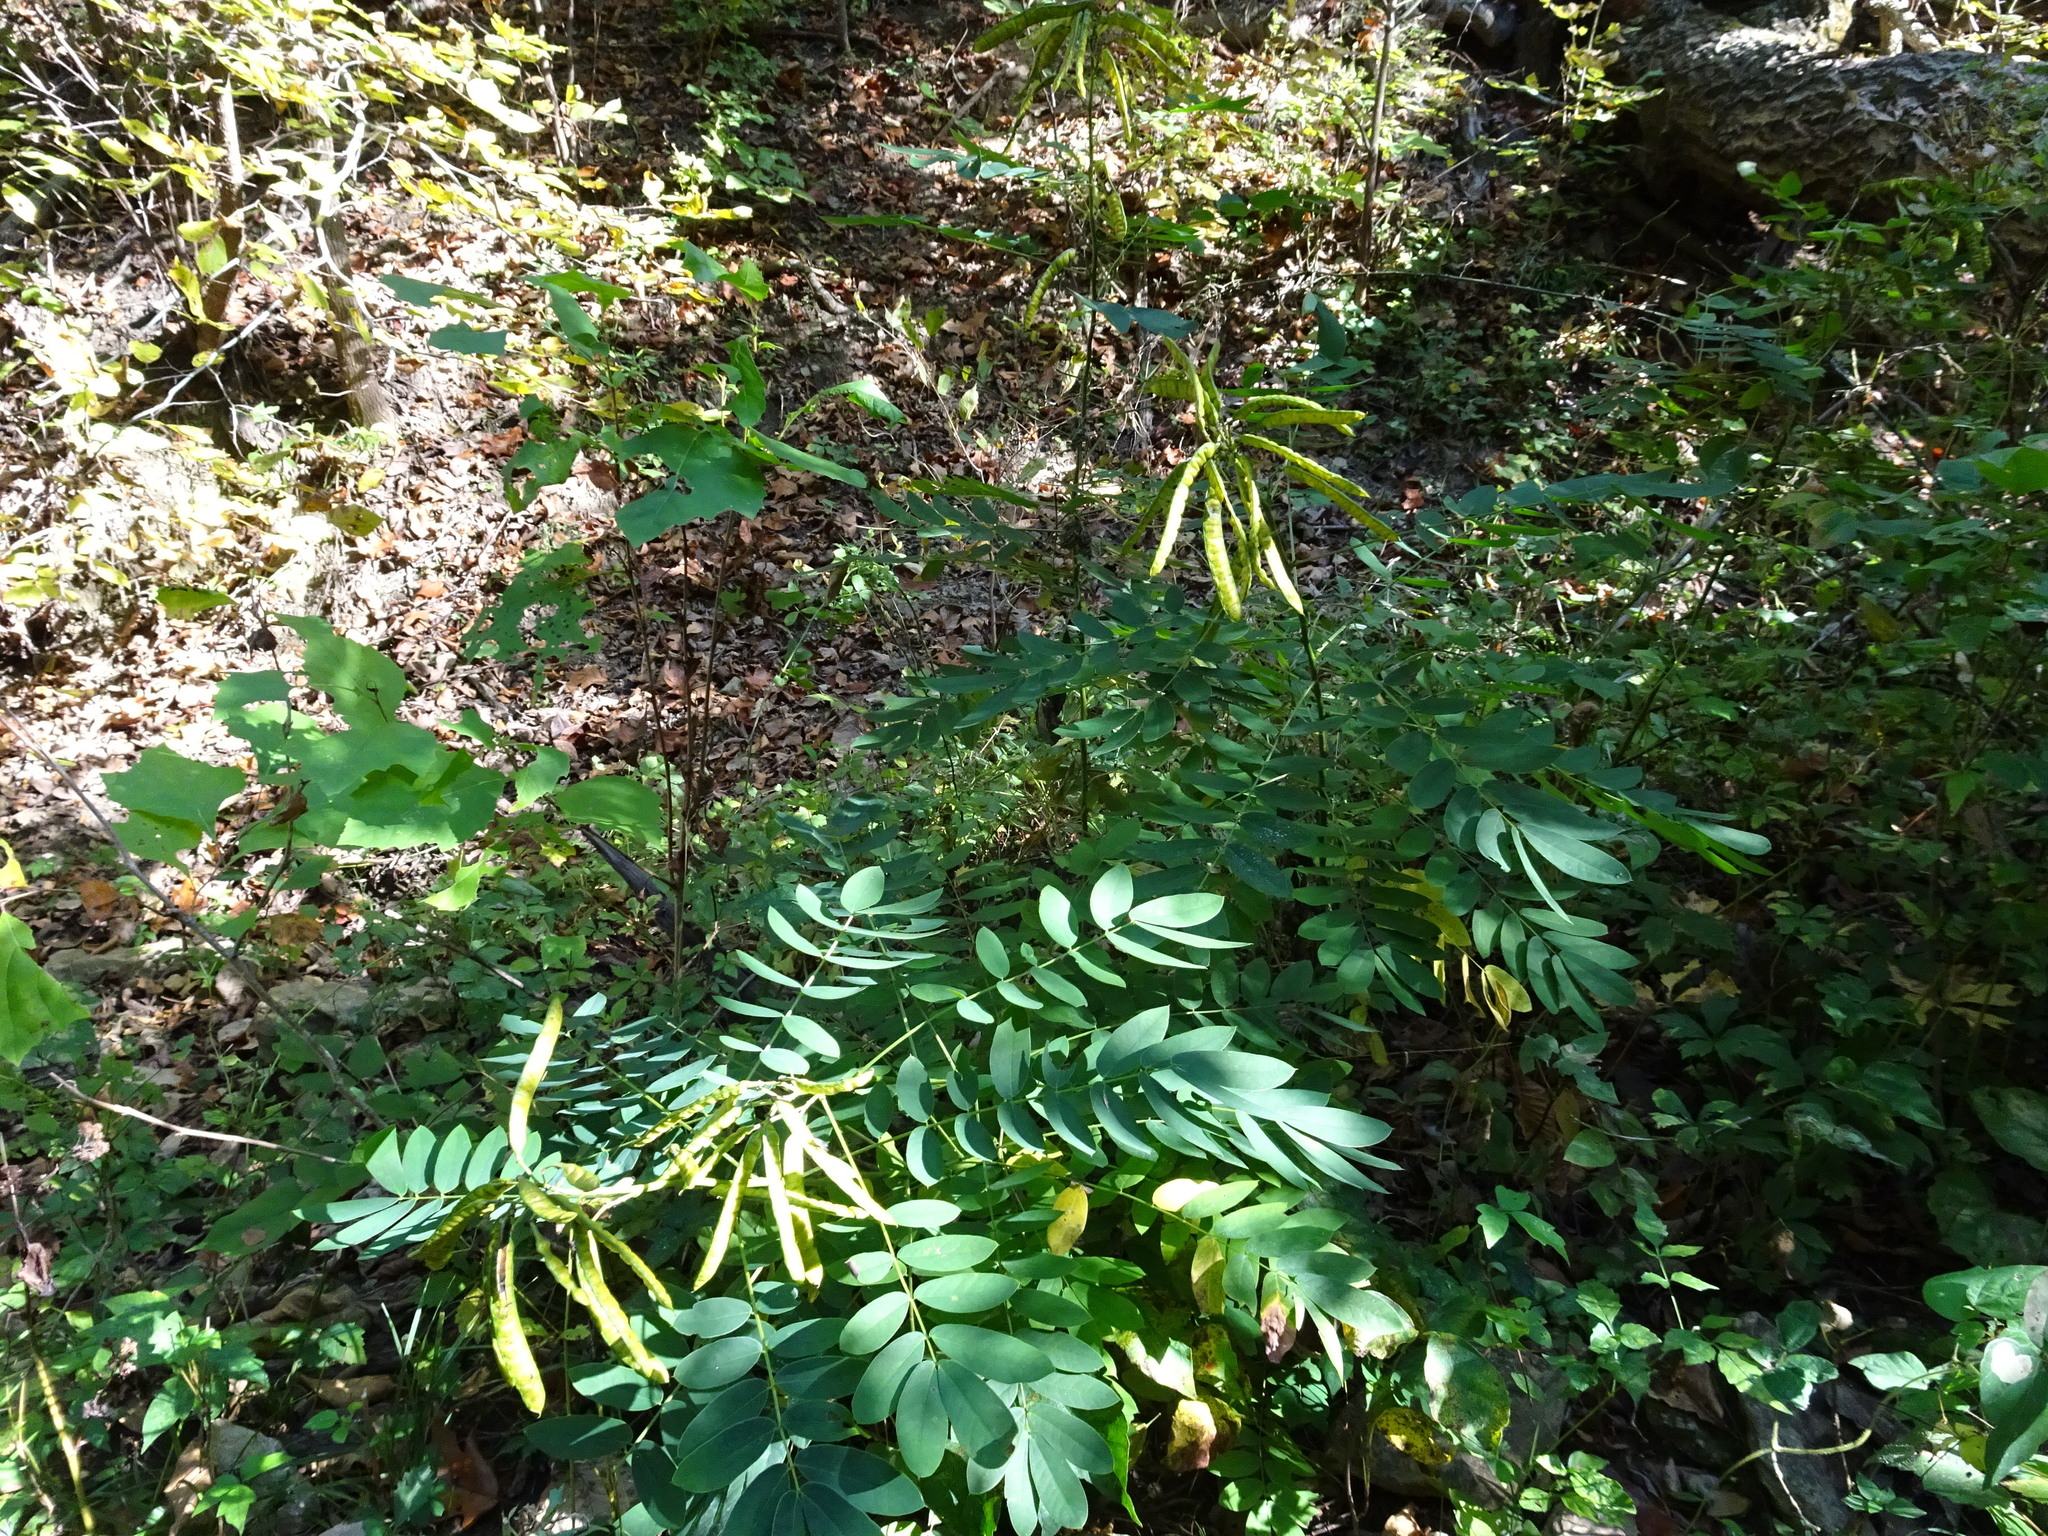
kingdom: Plantae
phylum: Tracheophyta
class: Magnoliopsida
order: Fabales
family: Fabaceae
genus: Senna
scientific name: Senna marilandica
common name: American senna
